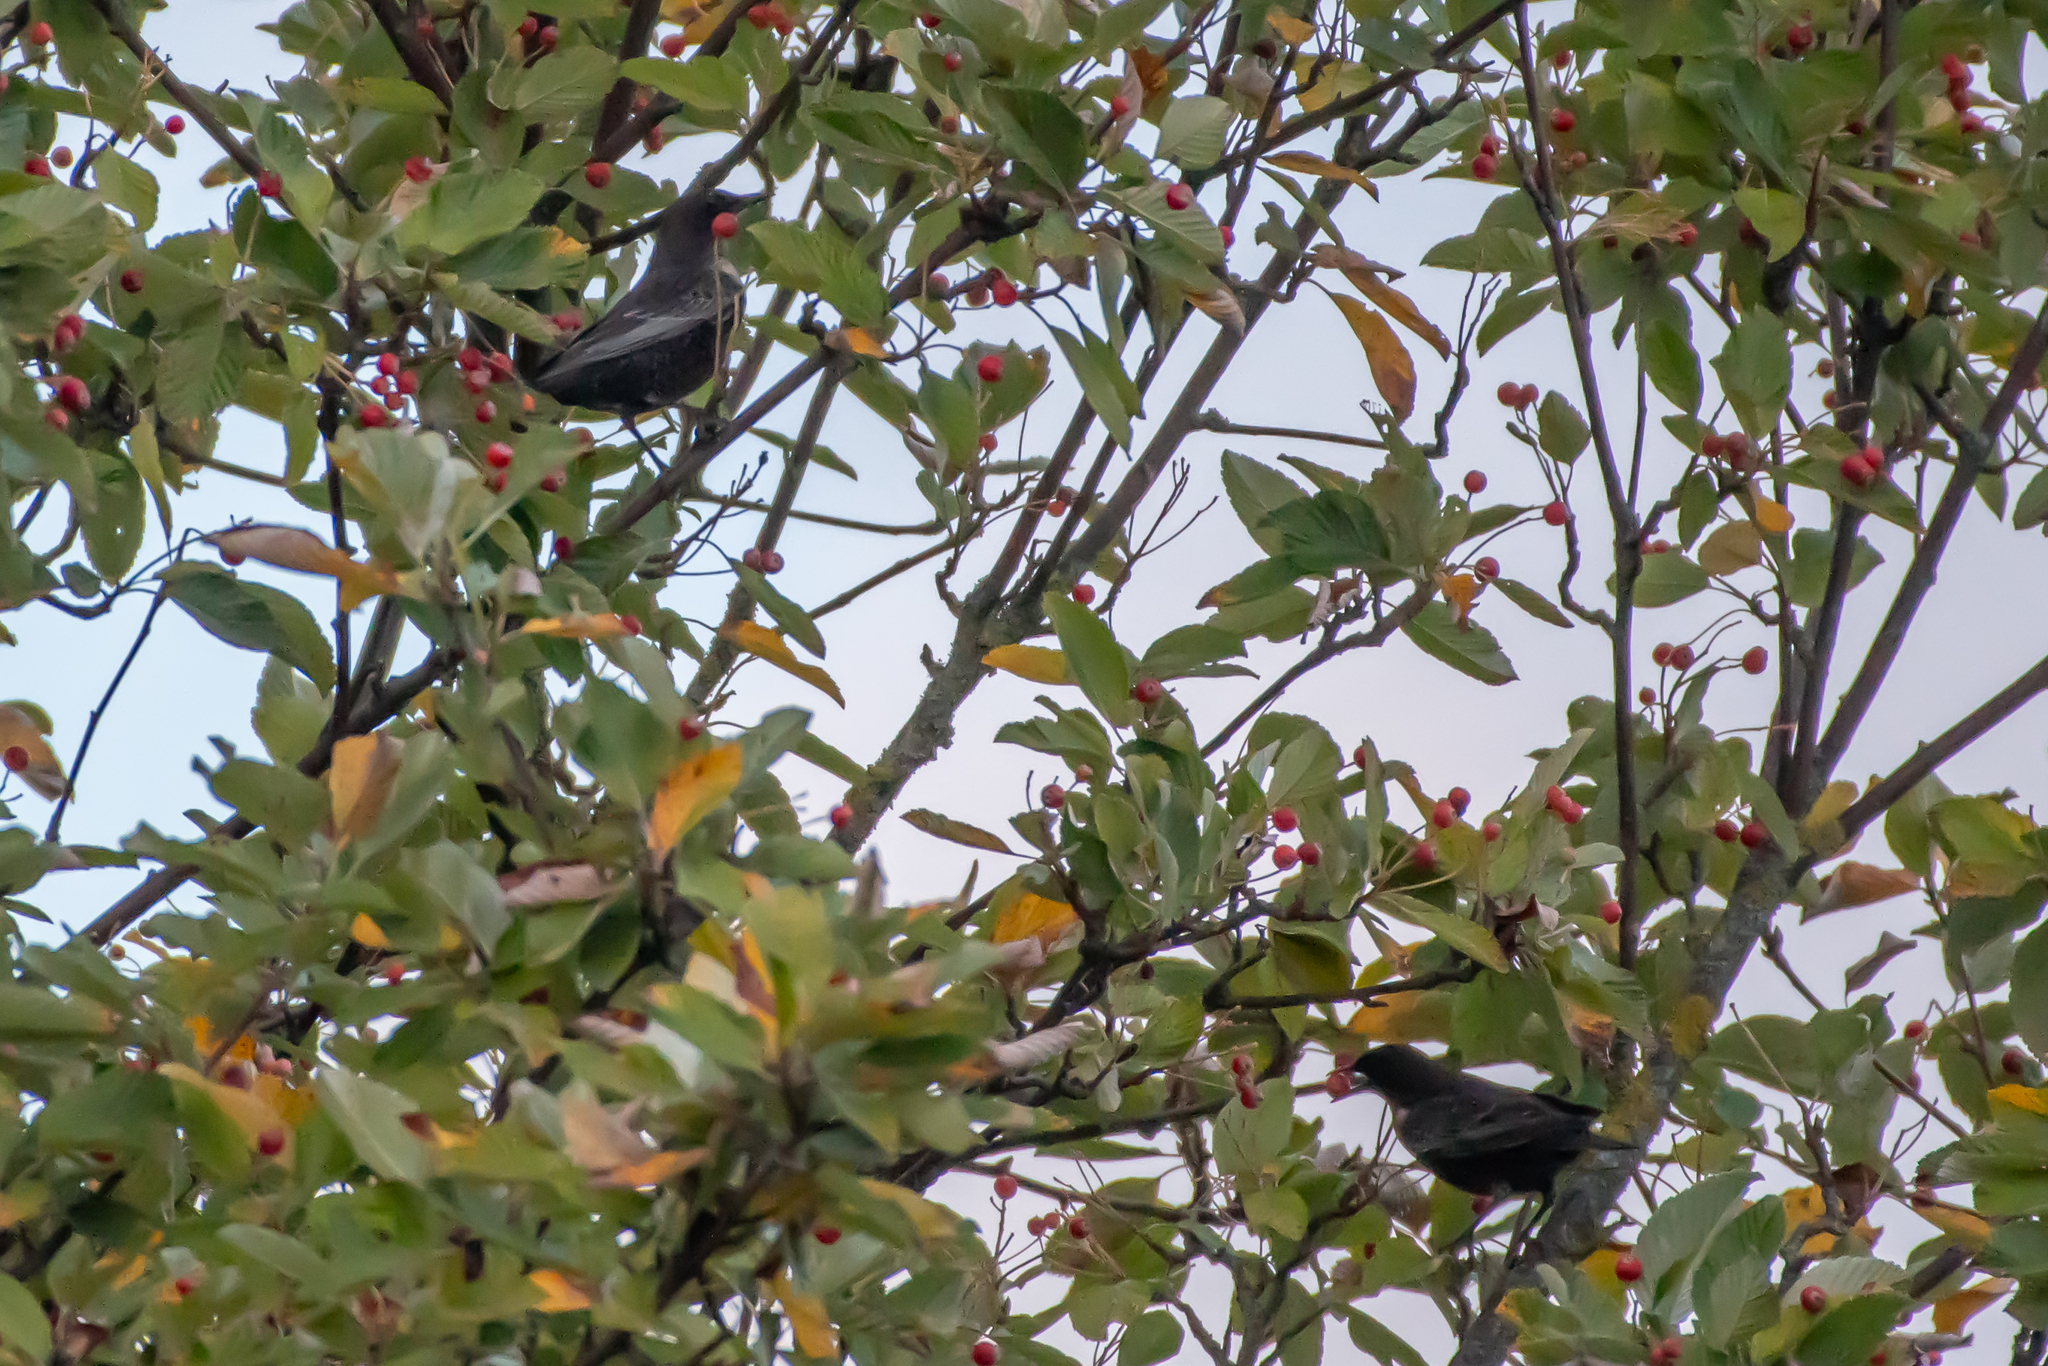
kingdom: Animalia
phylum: Chordata
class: Aves
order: Passeriformes
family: Turdidae
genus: Turdus
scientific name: Turdus torquatus
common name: Ring ouzel
